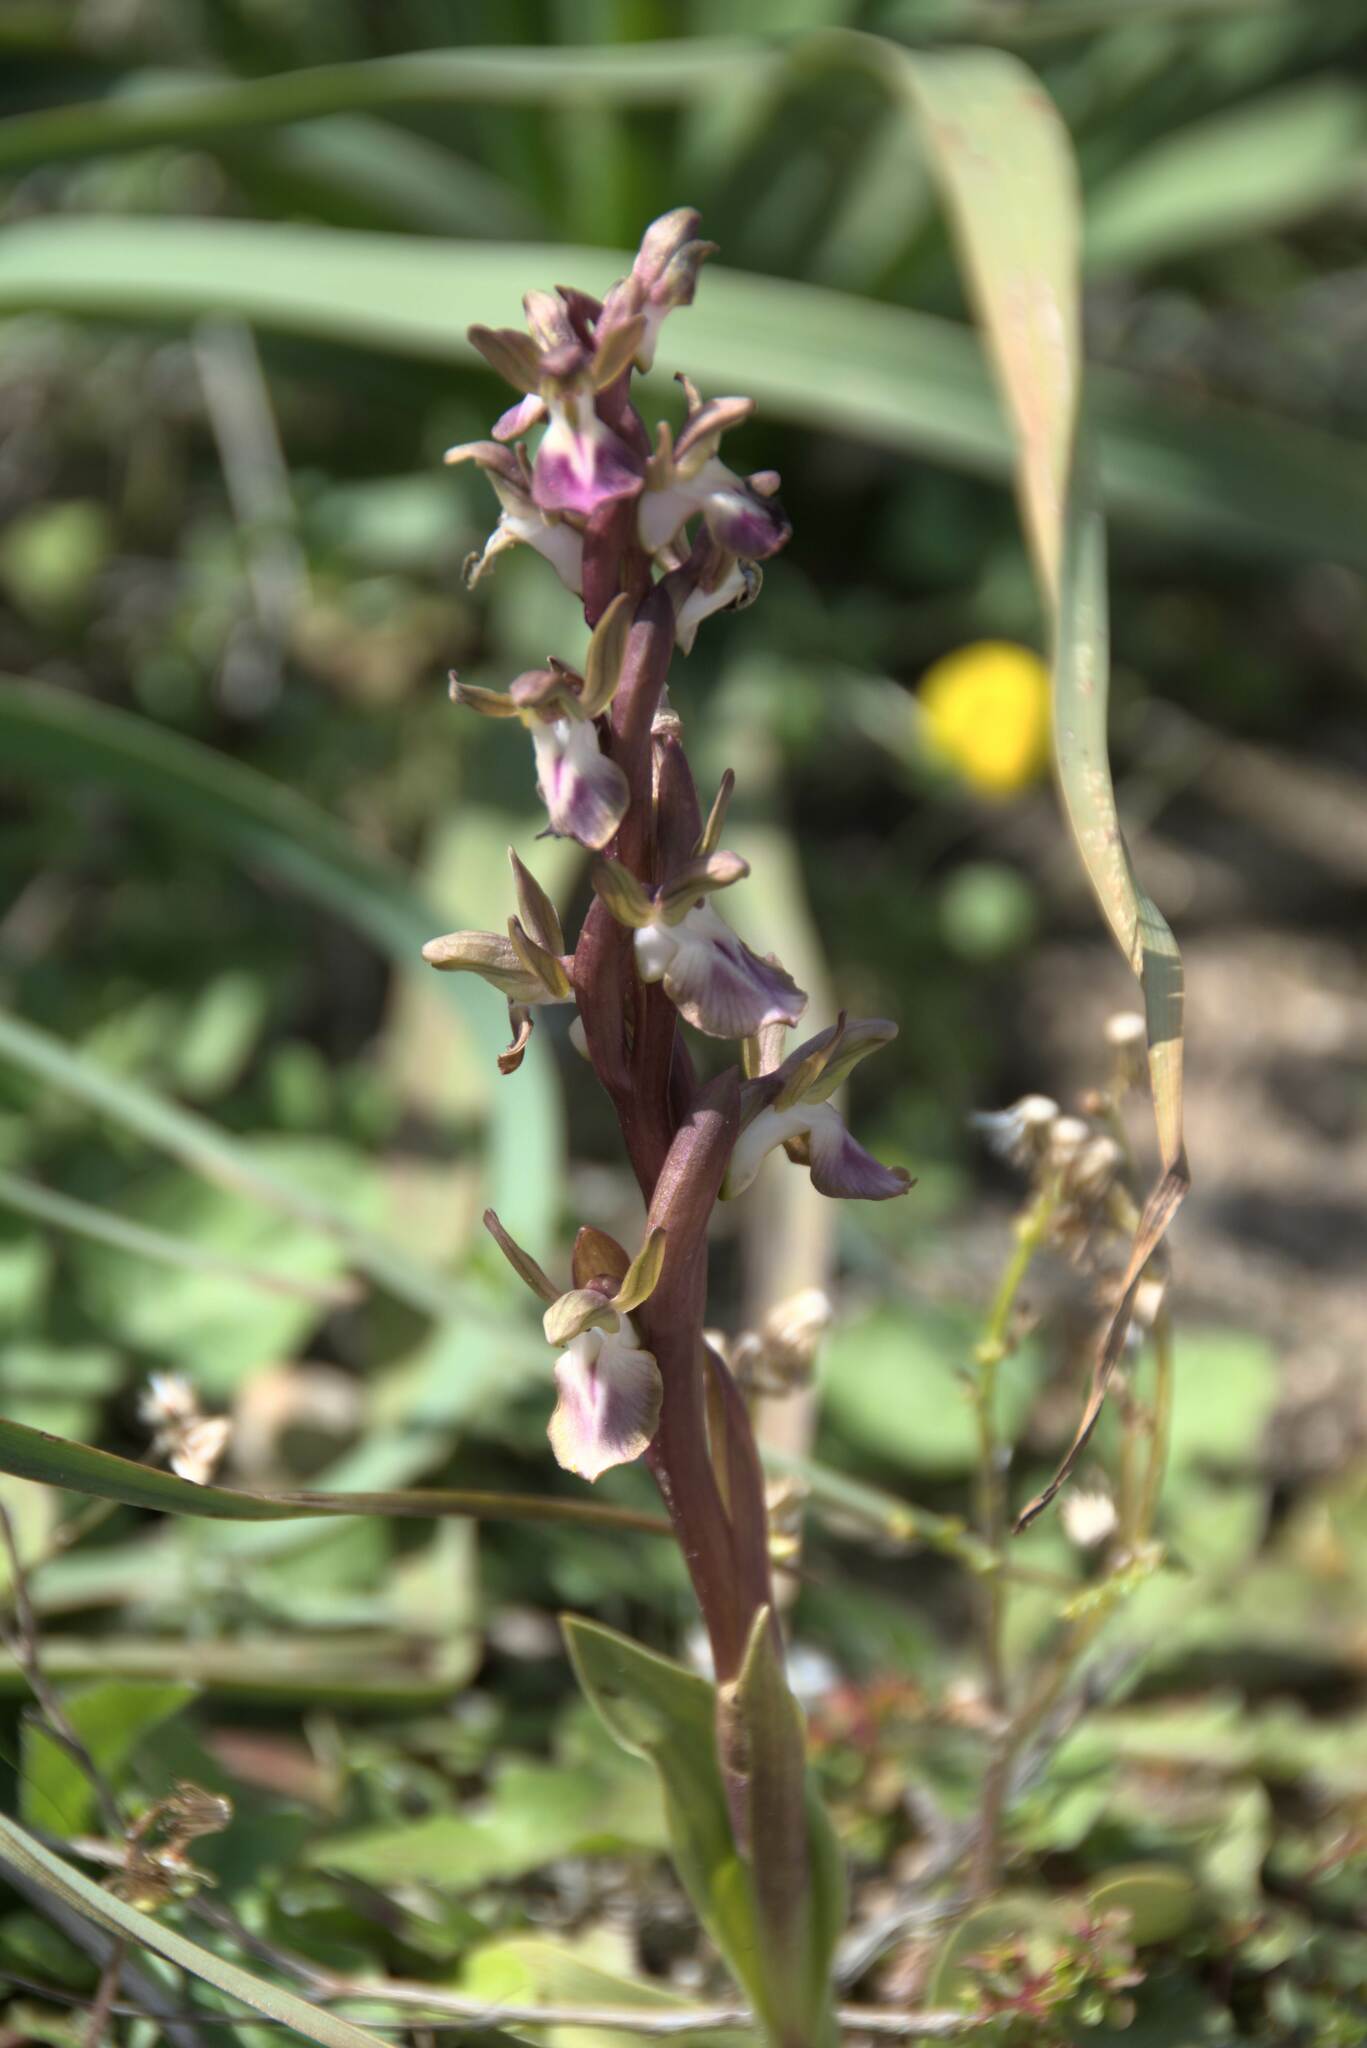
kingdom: Plantae
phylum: Tracheophyta
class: Liliopsida
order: Asparagales
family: Orchidaceae
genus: Anacamptis
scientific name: Anacamptis collina
